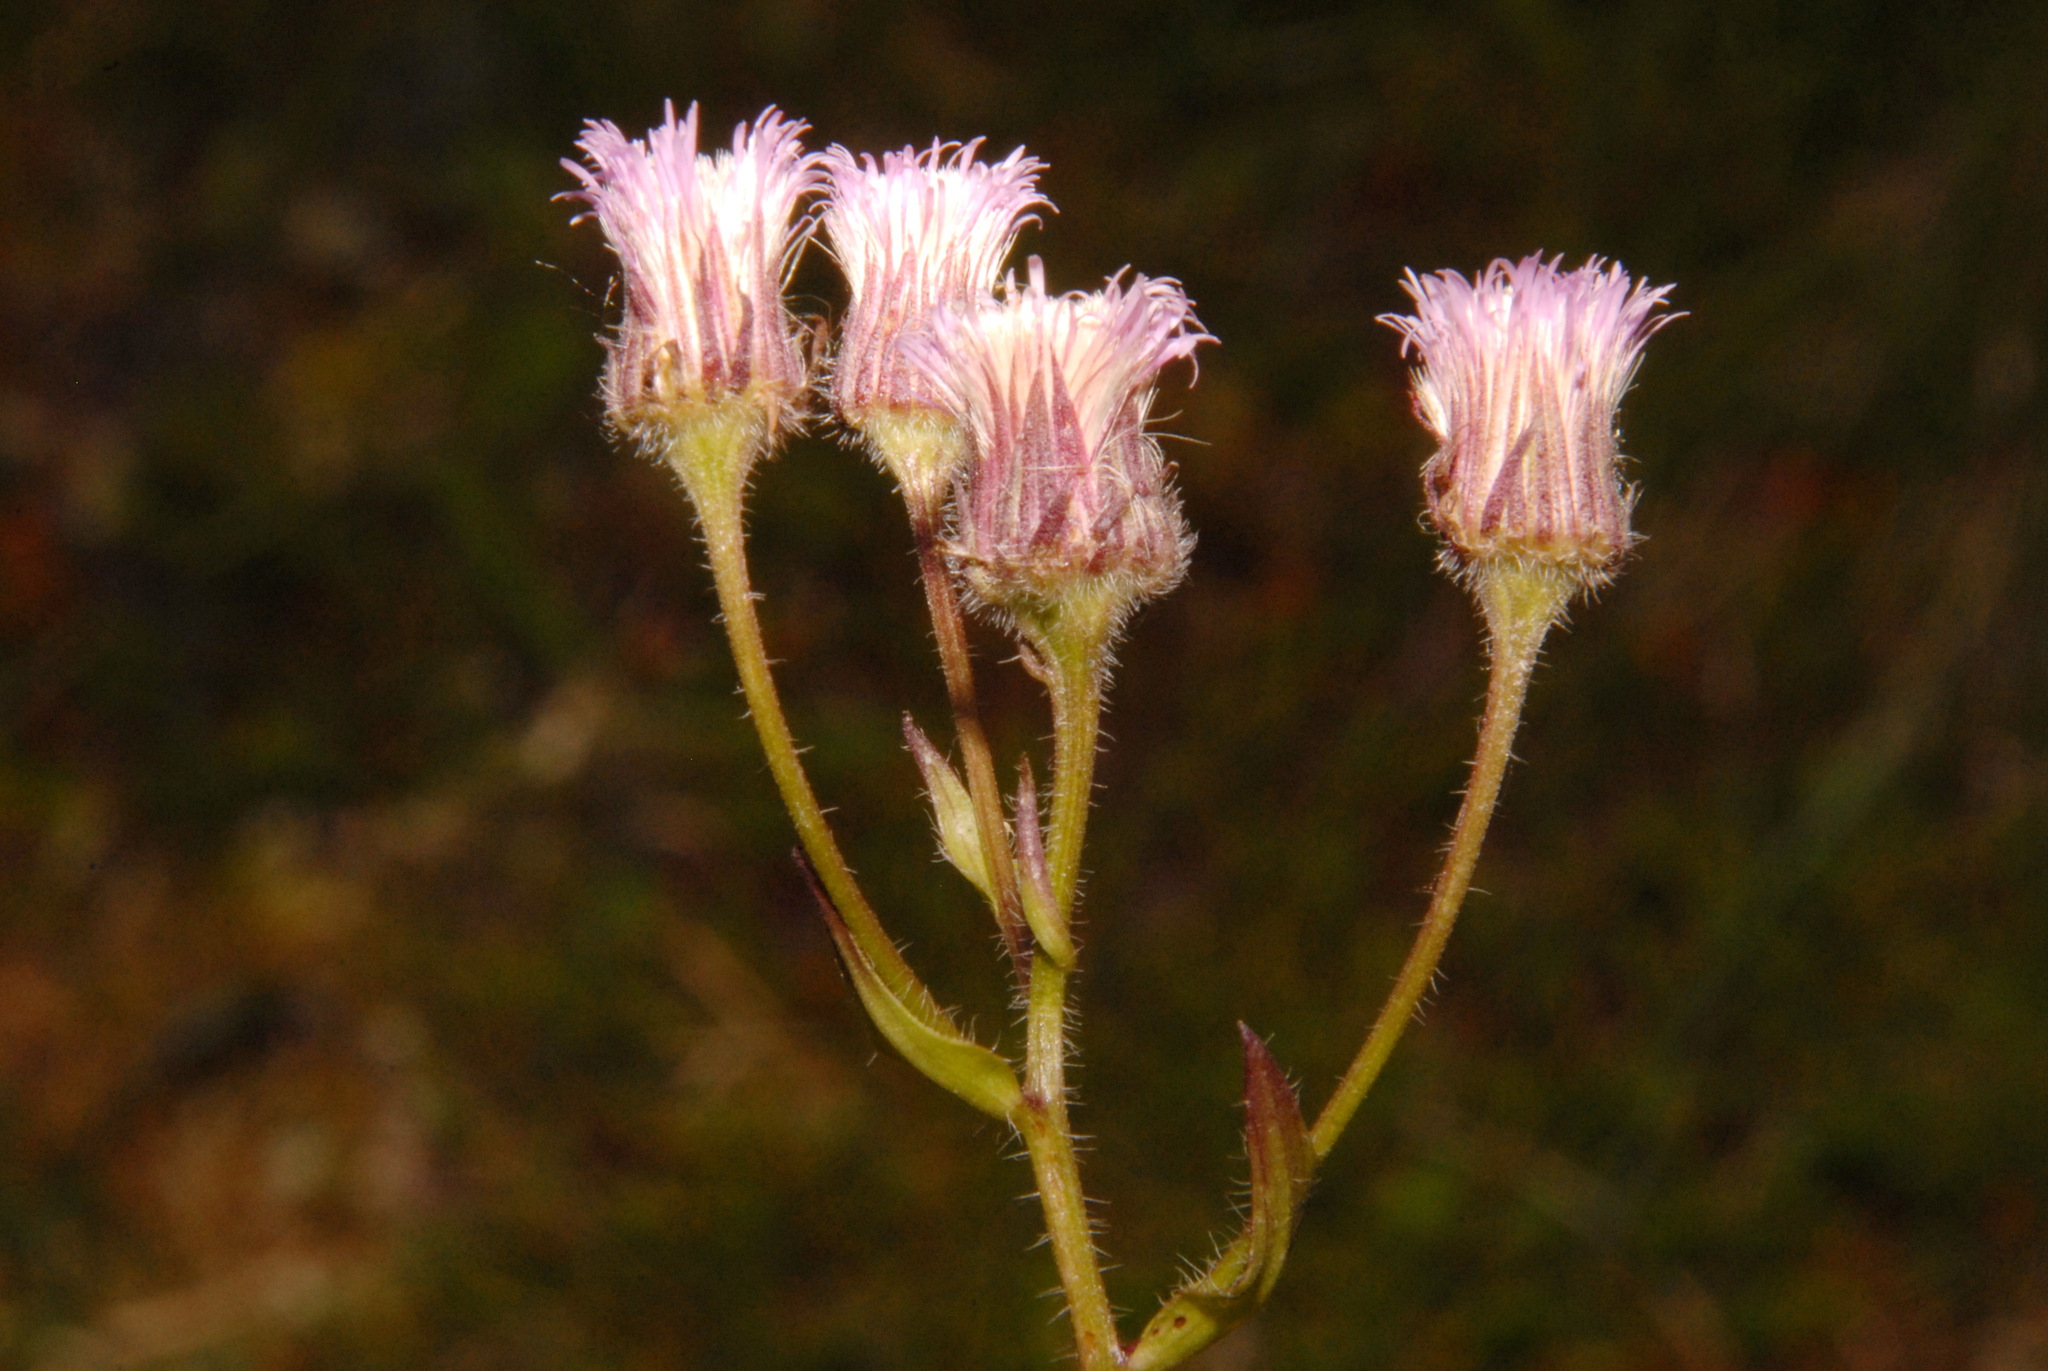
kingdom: Plantae
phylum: Tracheophyta
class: Magnoliopsida
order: Asterales
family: Asteraceae
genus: Erigeron
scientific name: Erigeron acris
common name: Blue fleabane
